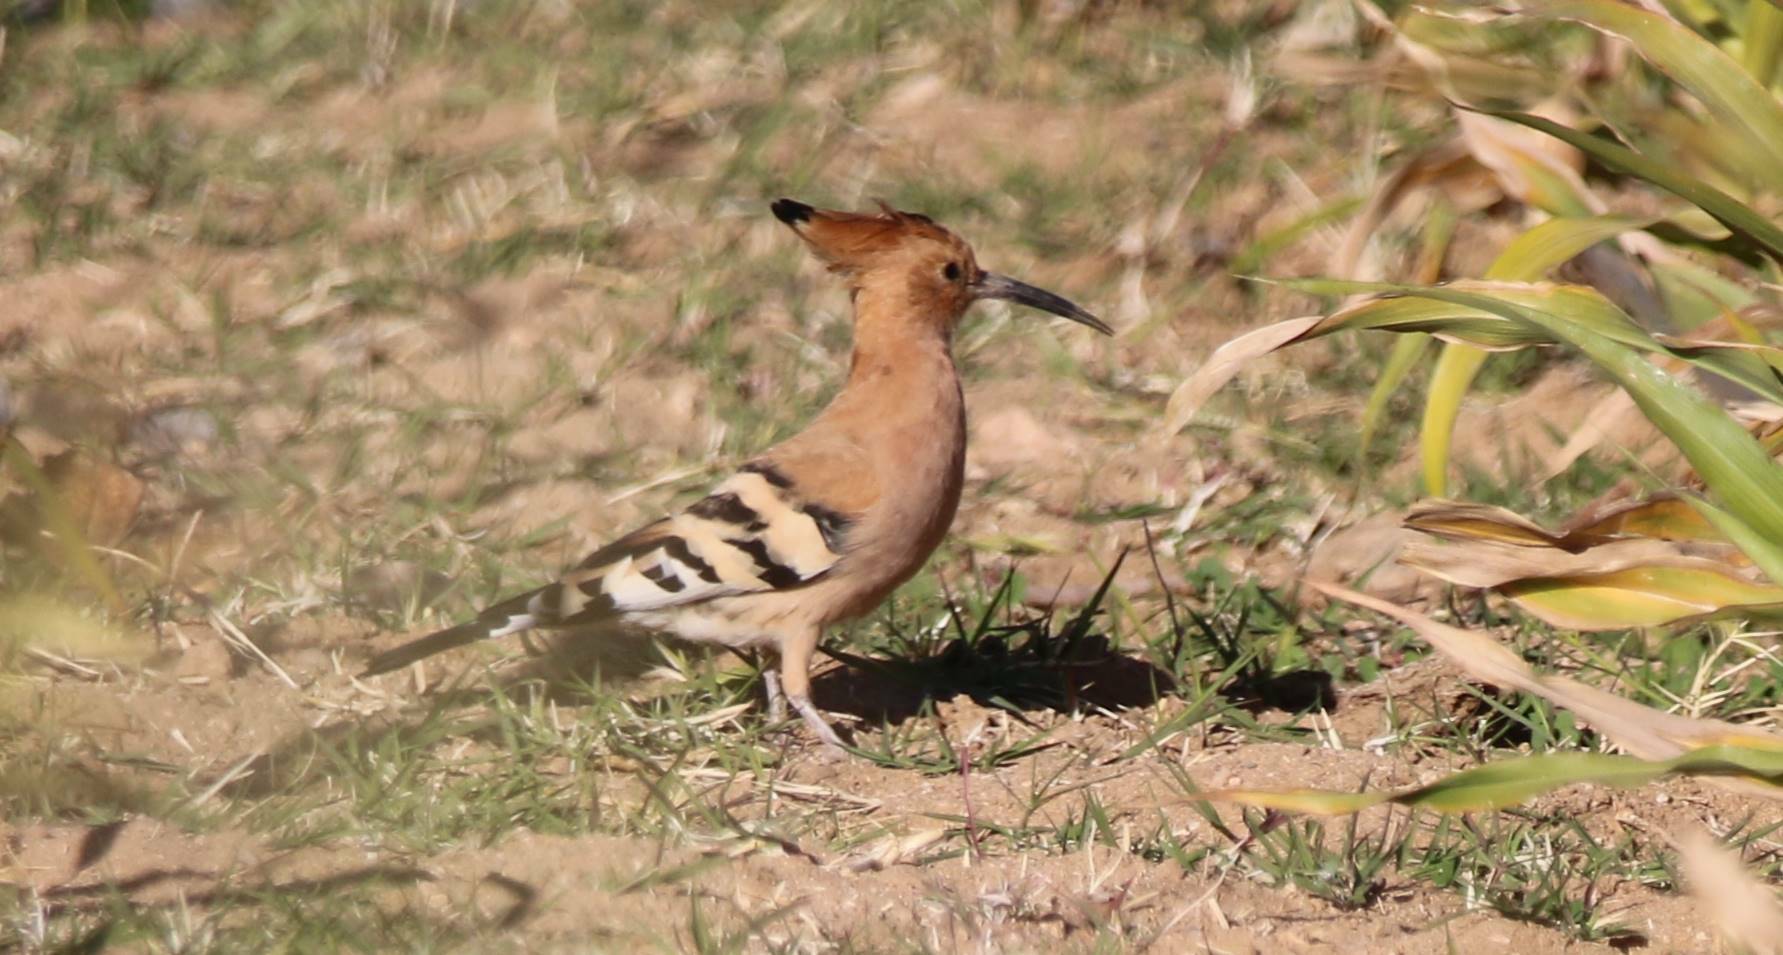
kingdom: Animalia
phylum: Chordata
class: Aves
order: Bucerotiformes
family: Upupidae
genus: Upupa
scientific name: Upupa epops
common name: Eurasian hoopoe
